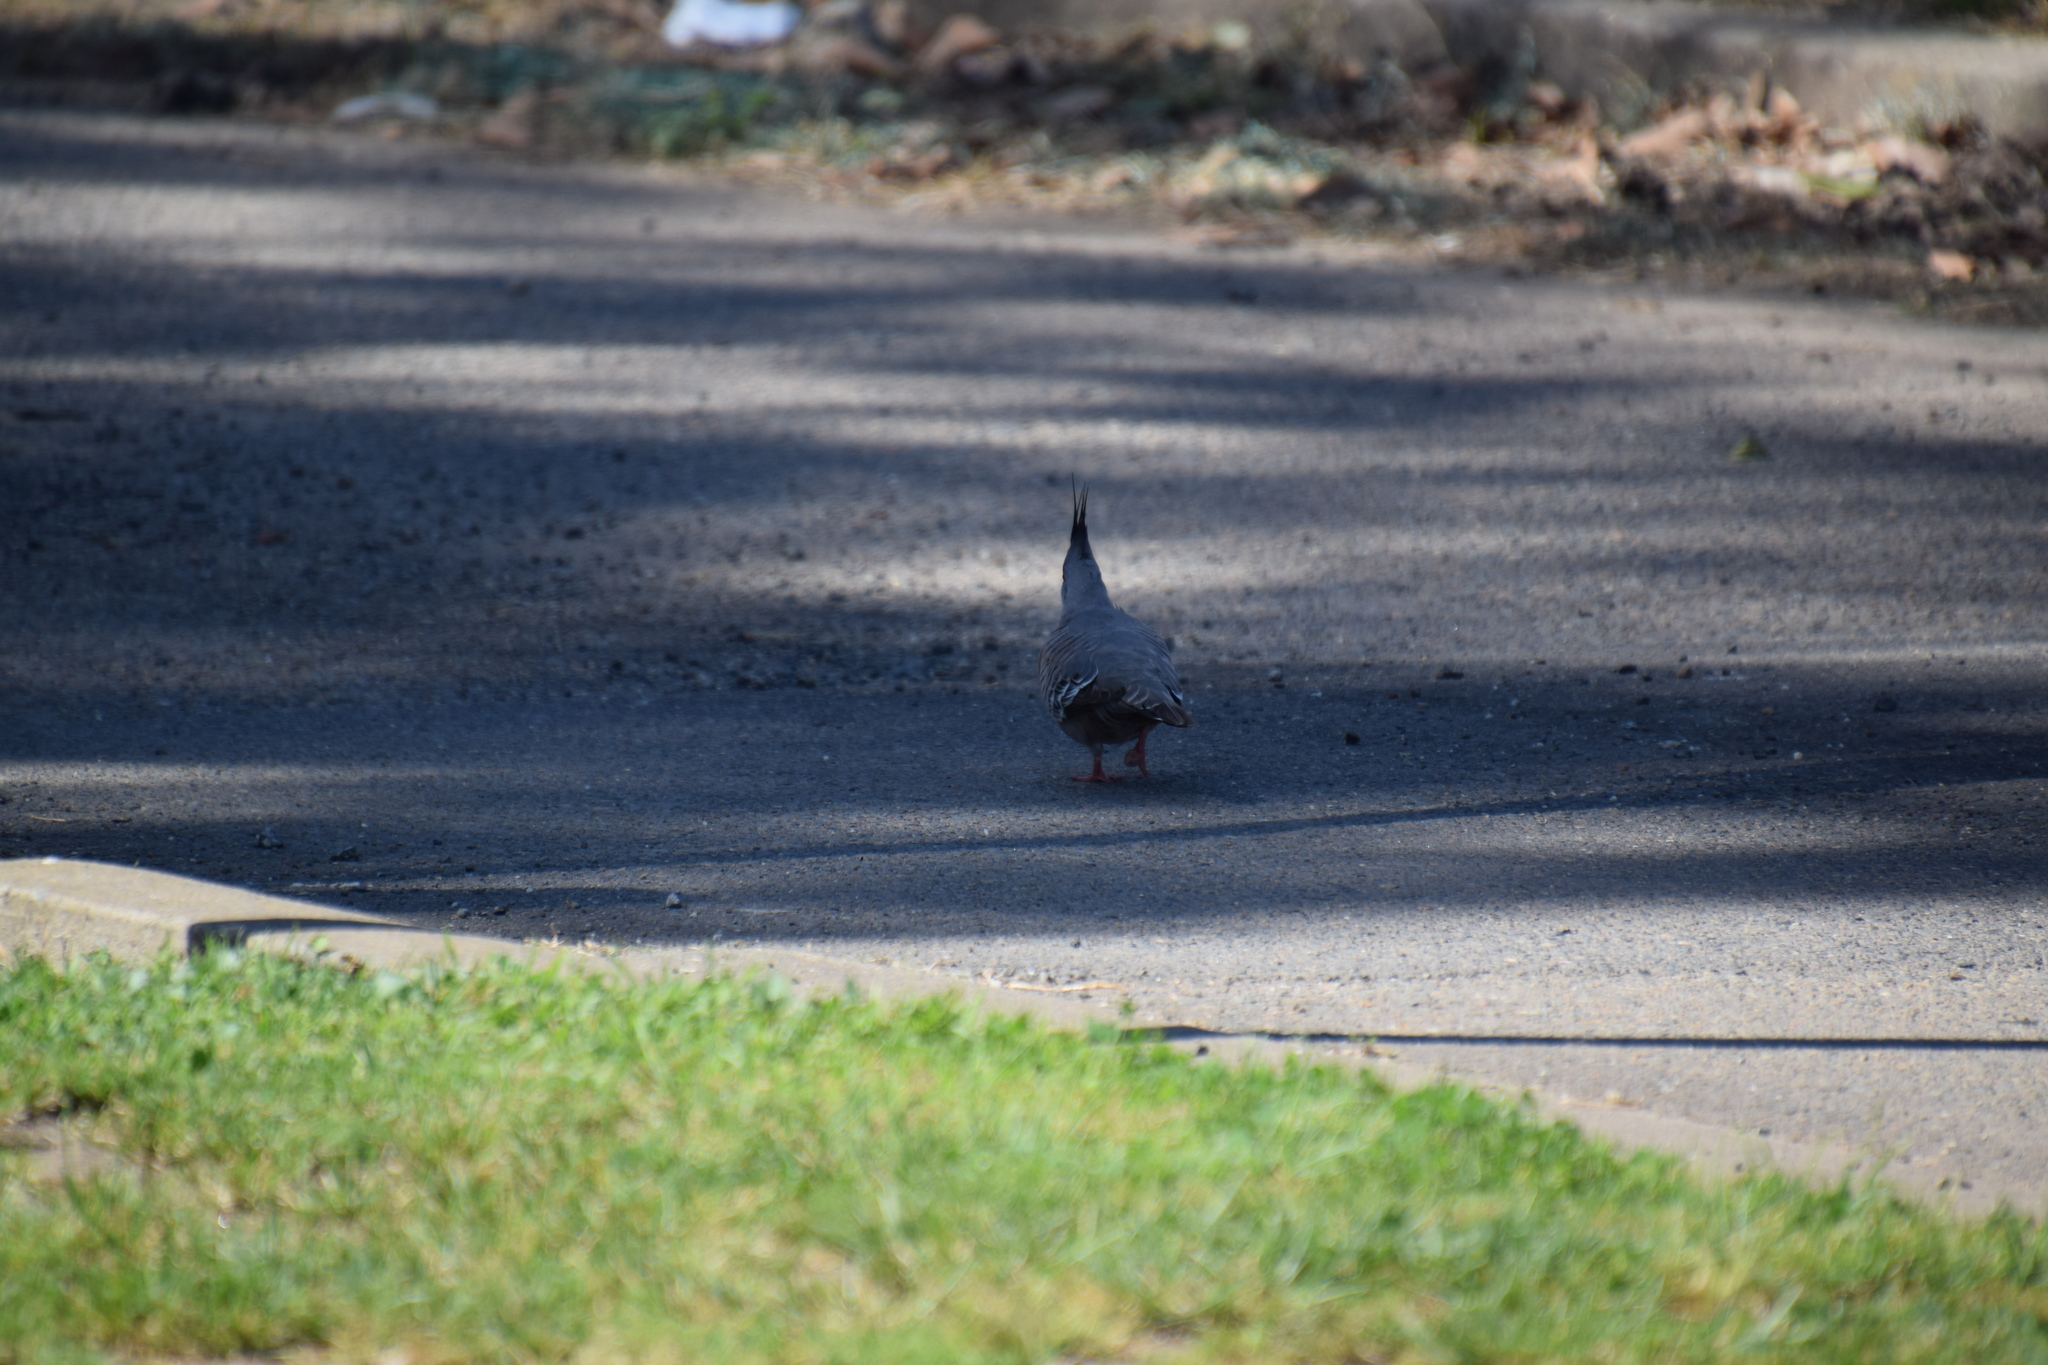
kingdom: Animalia
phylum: Chordata
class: Aves
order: Columbiformes
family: Columbidae
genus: Ocyphaps
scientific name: Ocyphaps lophotes
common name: Crested pigeon
